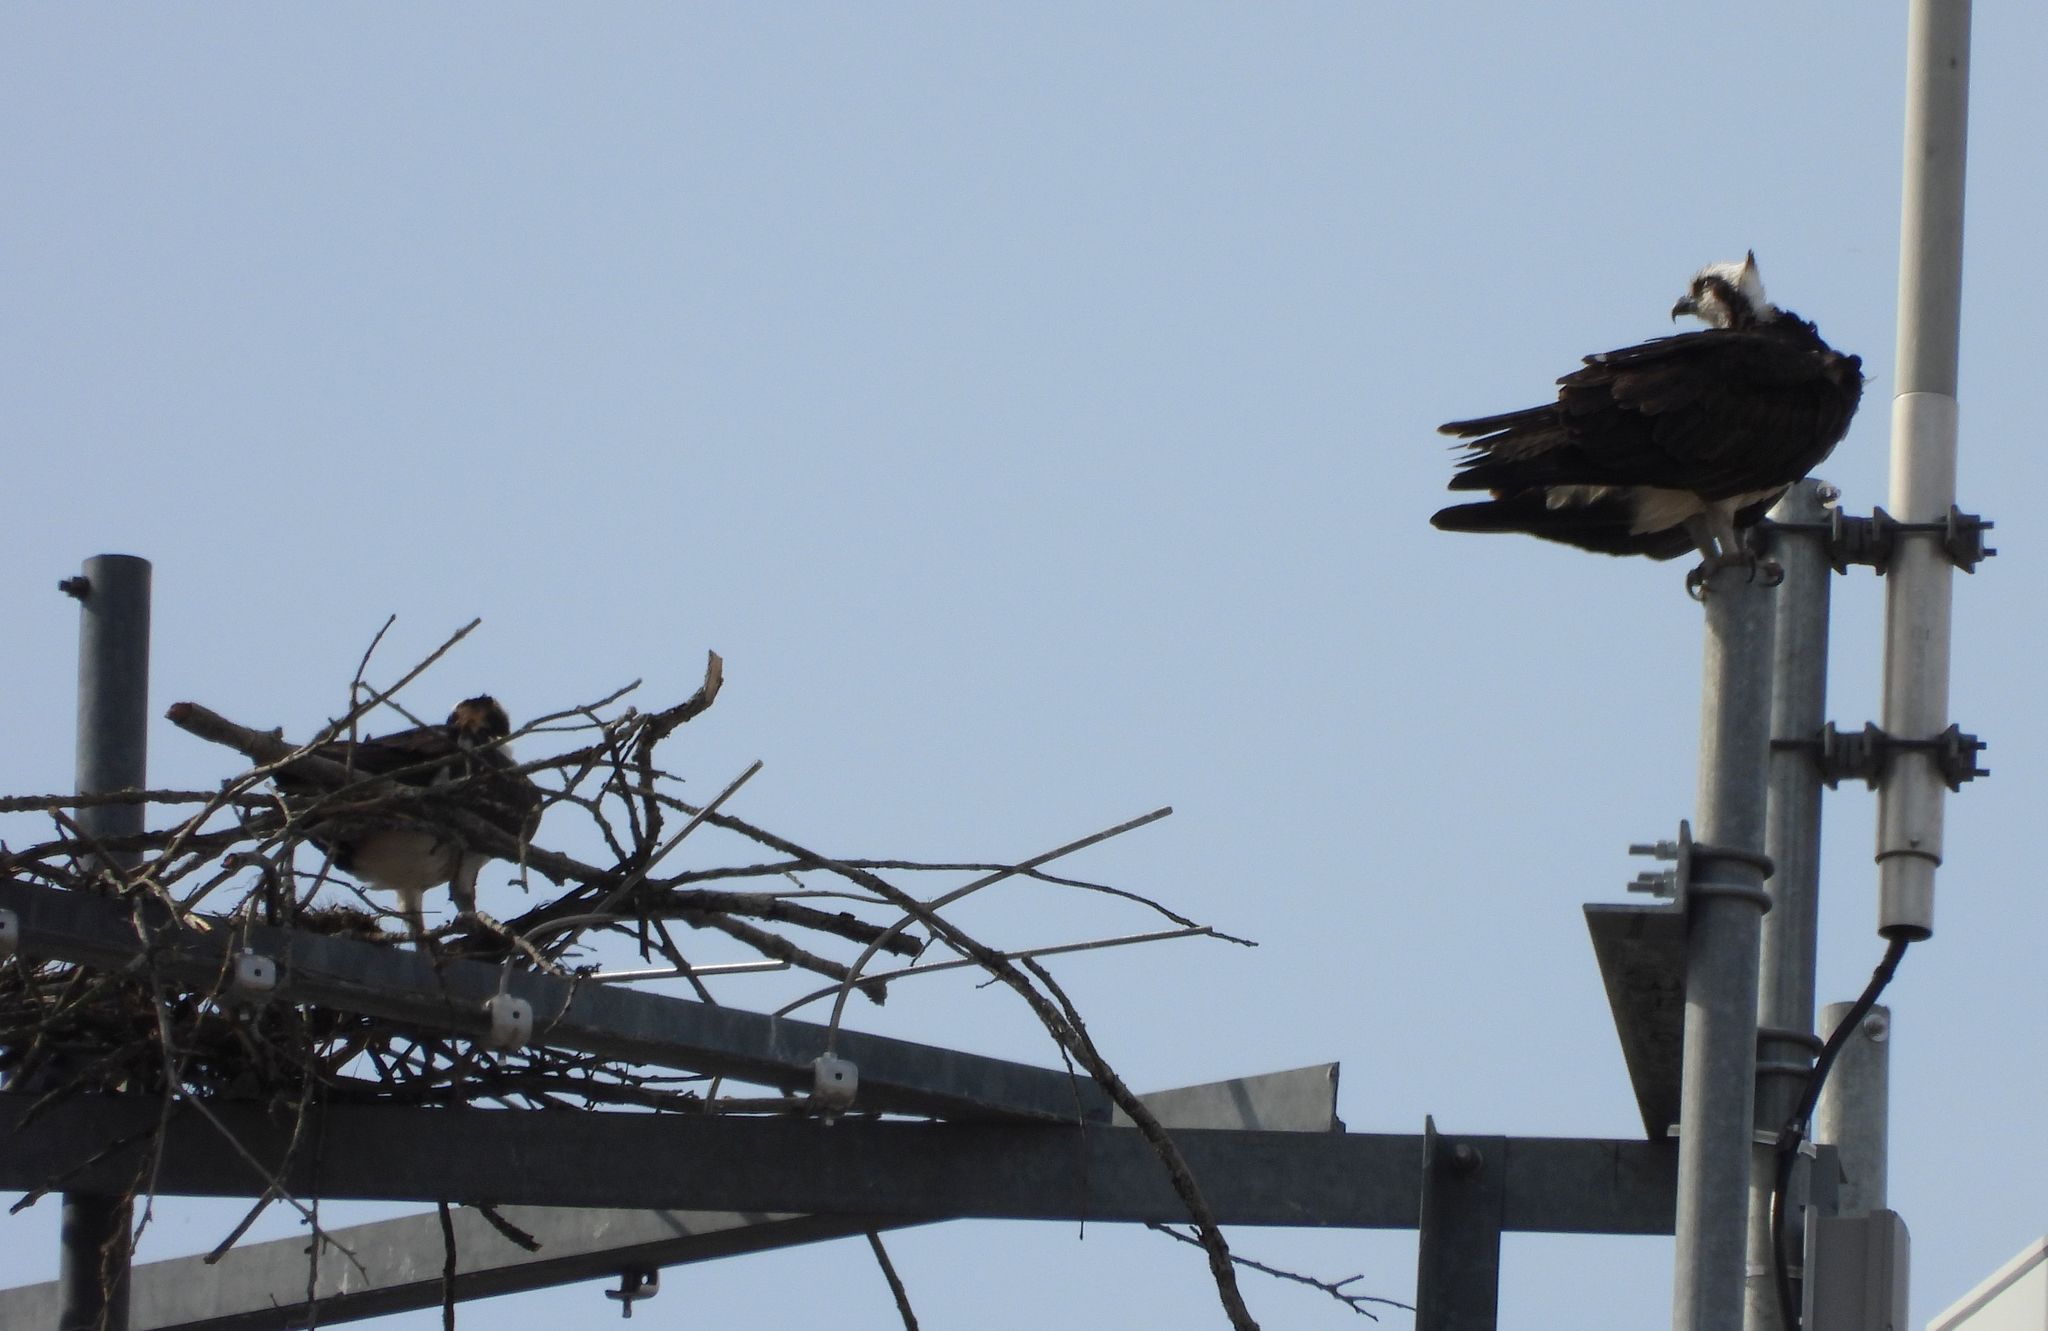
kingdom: Animalia
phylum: Chordata
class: Aves
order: Accipitriformes
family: Pandionidae
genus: Pandion
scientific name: Pandion haliaetus
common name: Osprey
